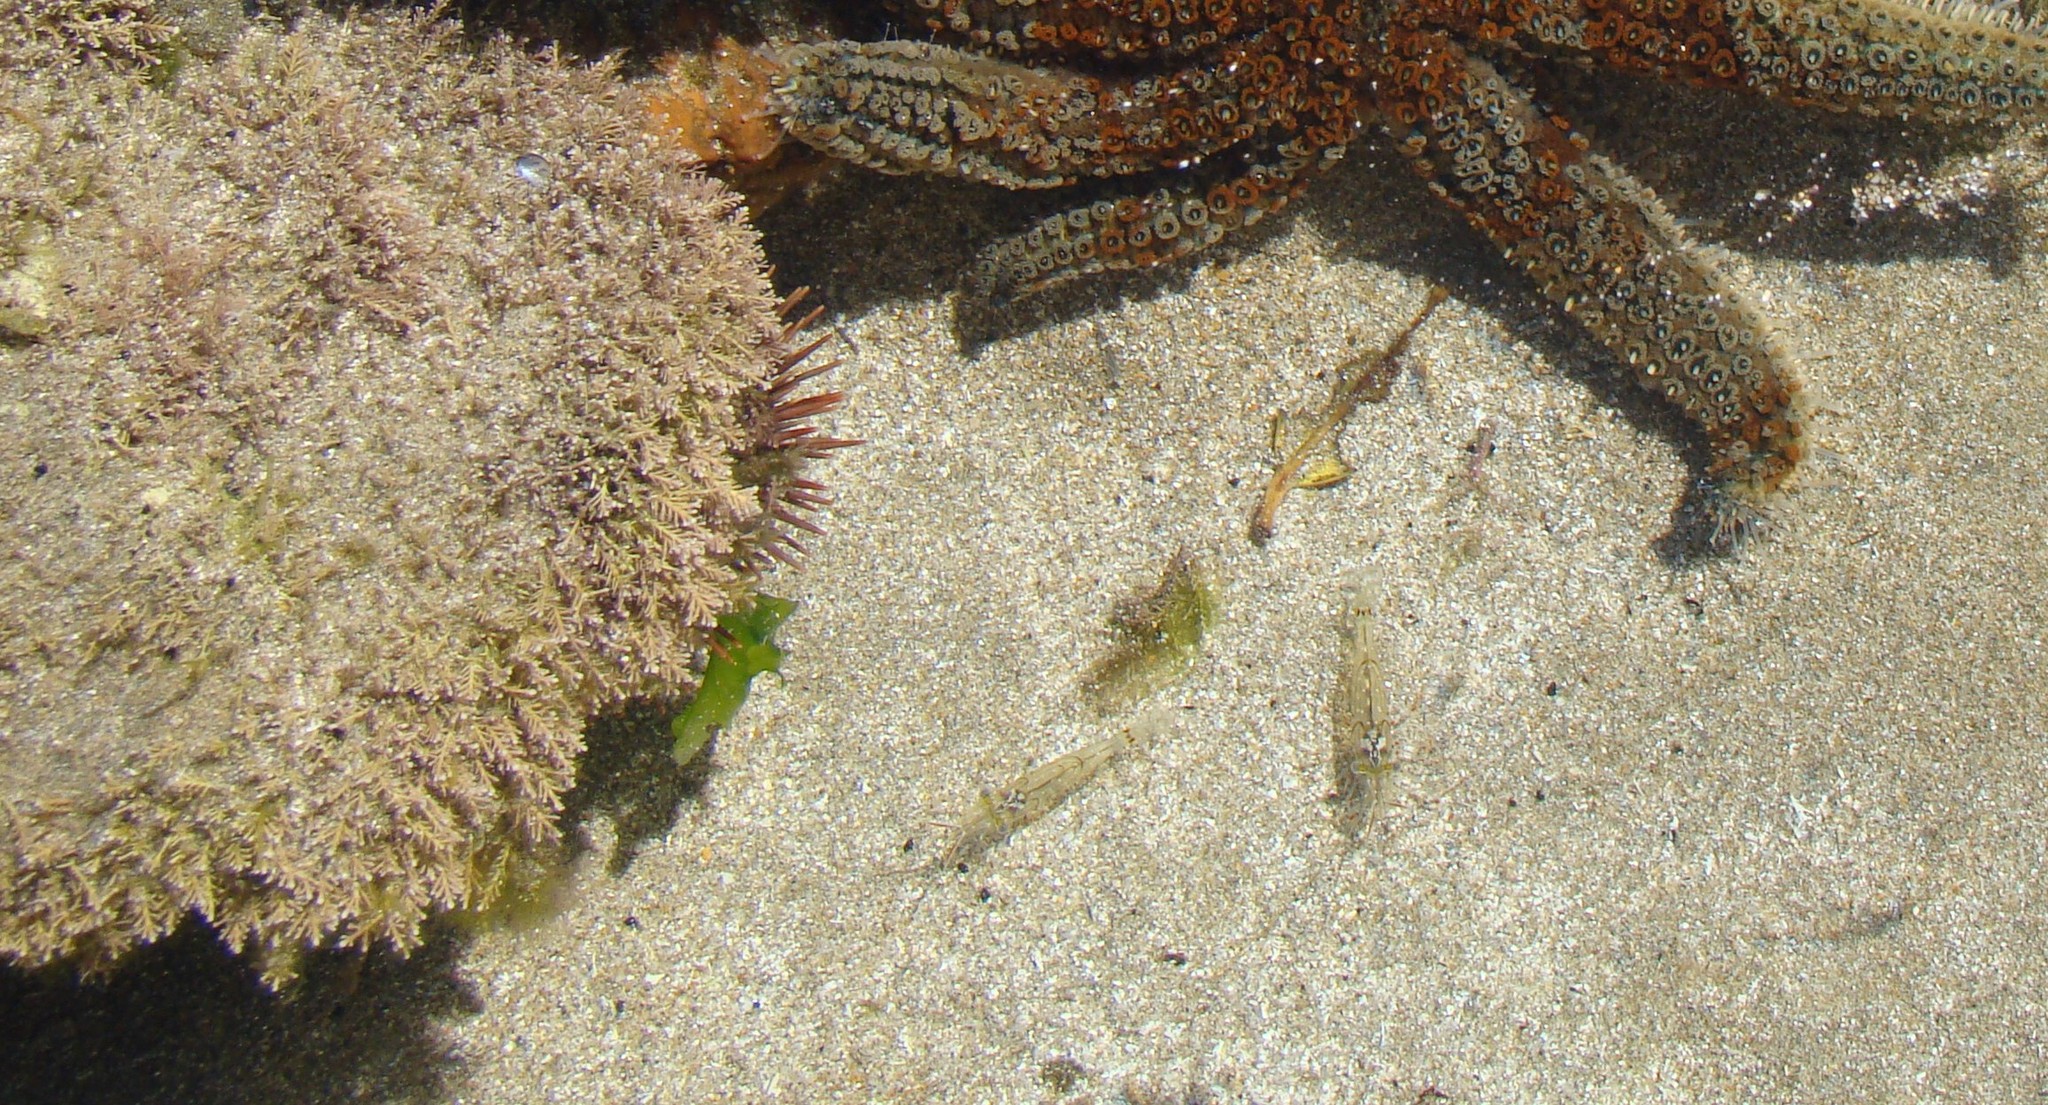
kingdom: Animalia
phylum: Arthropoda
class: Malacostraca
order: Decapoda
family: Palaemonidae
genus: Palaemon
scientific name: Palaemon affinis
